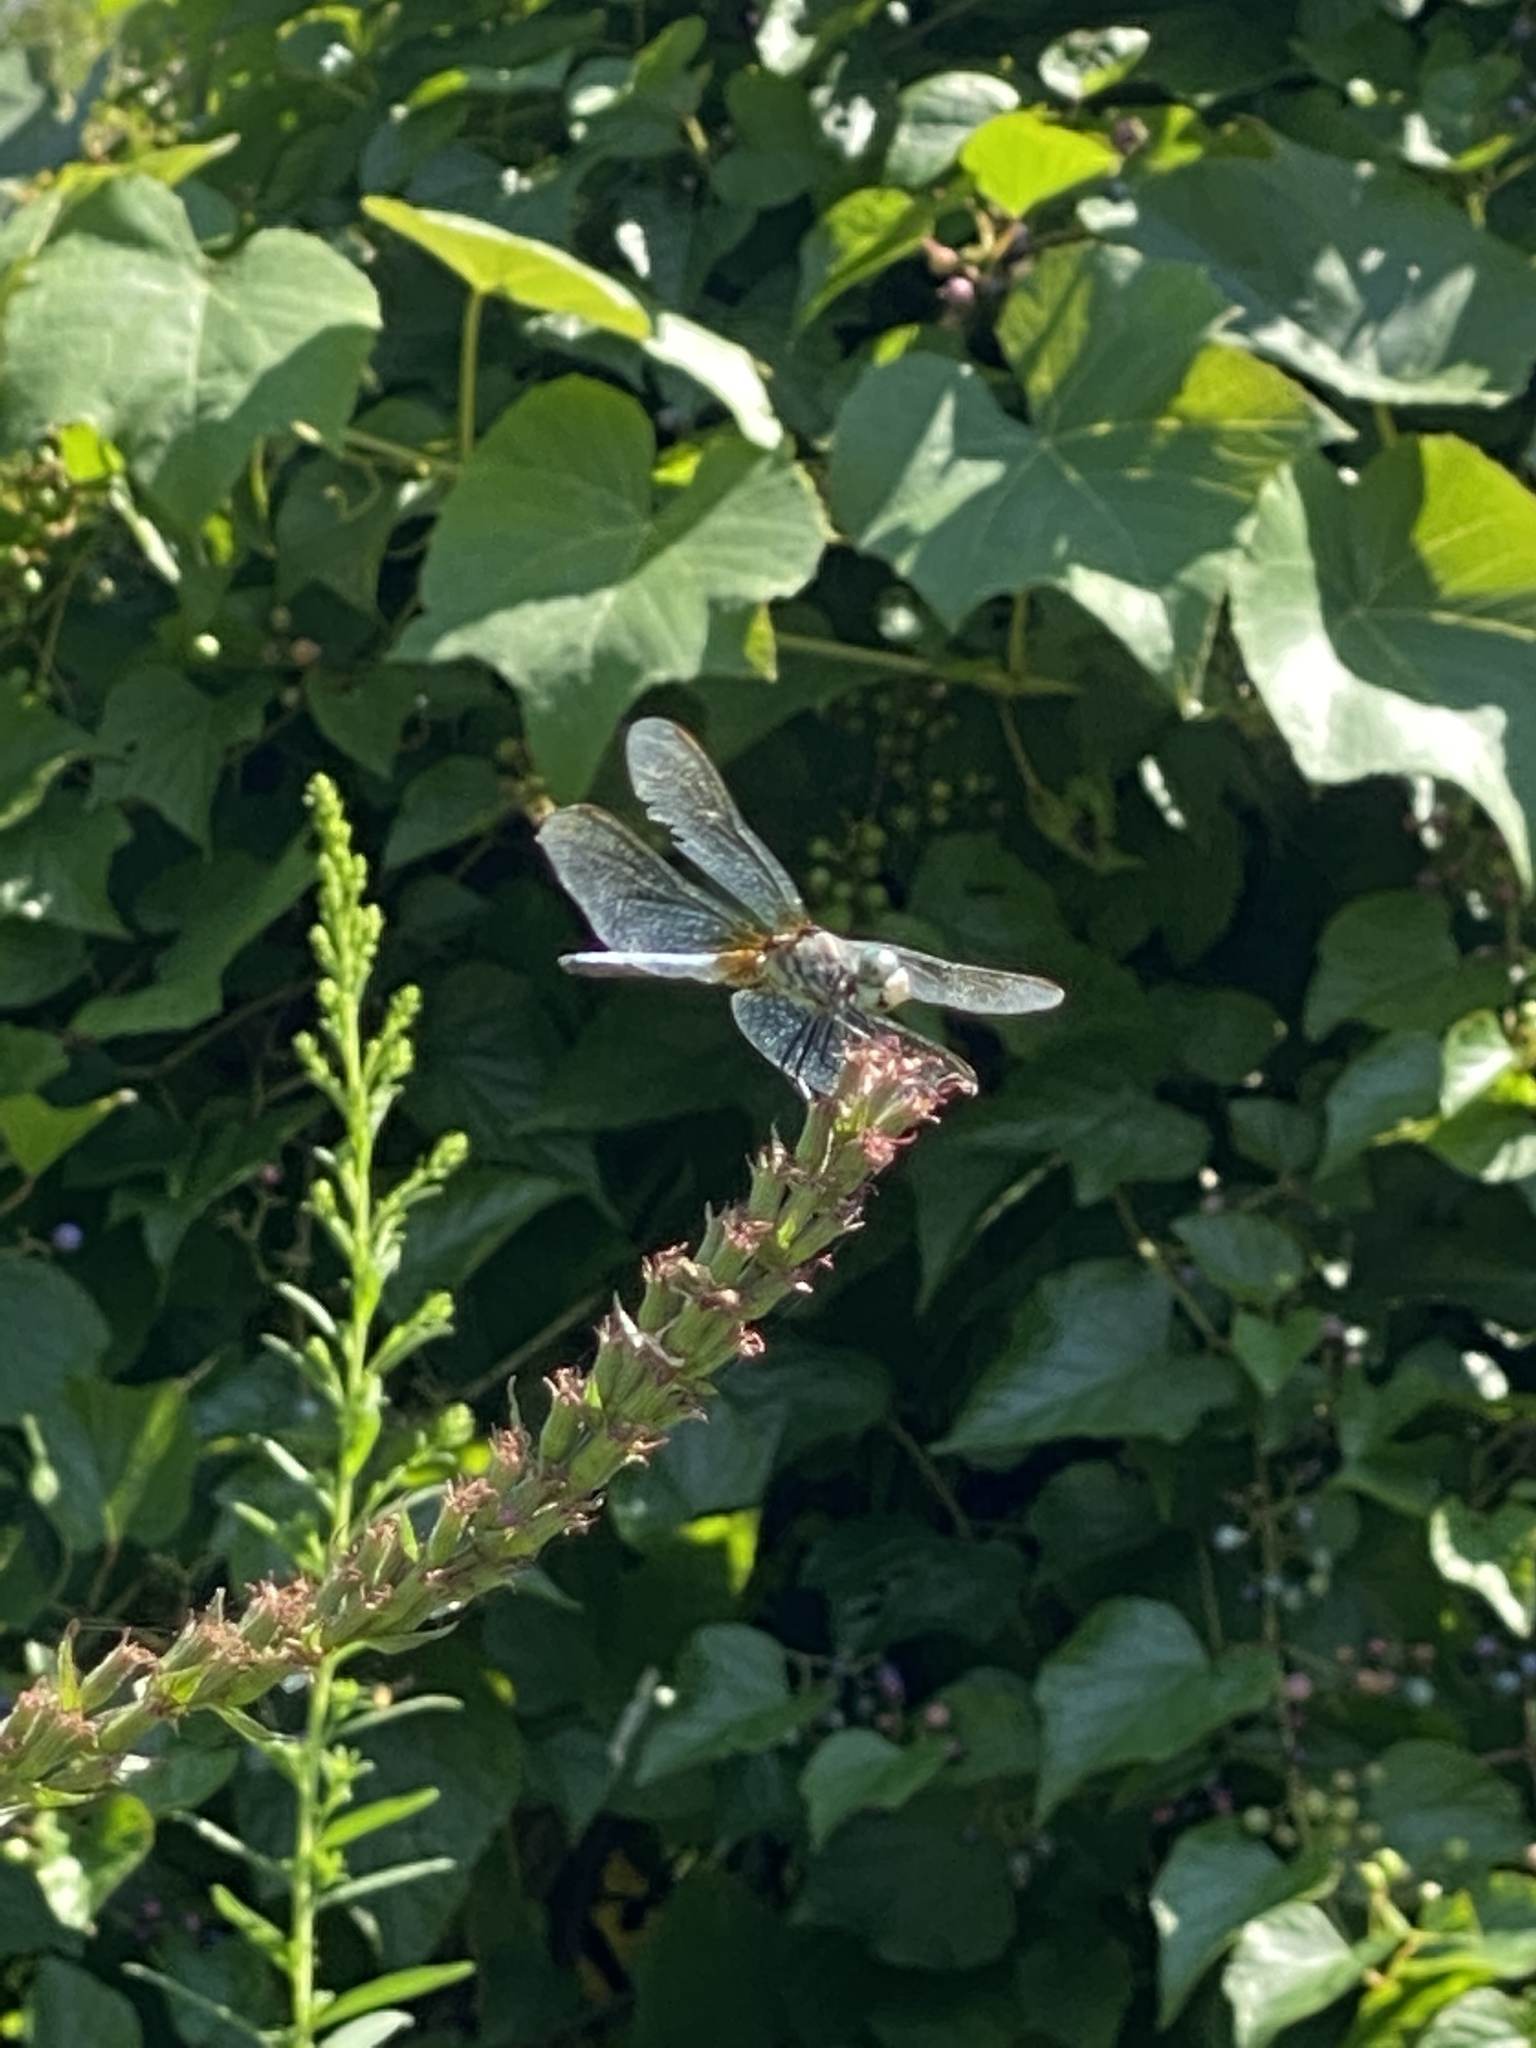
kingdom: Animalia
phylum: Arthropoda
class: Insecta
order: Odonata
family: Libellulidae
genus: Pachydiplax
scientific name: Pachydiplax longipennis
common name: Blue dasher
